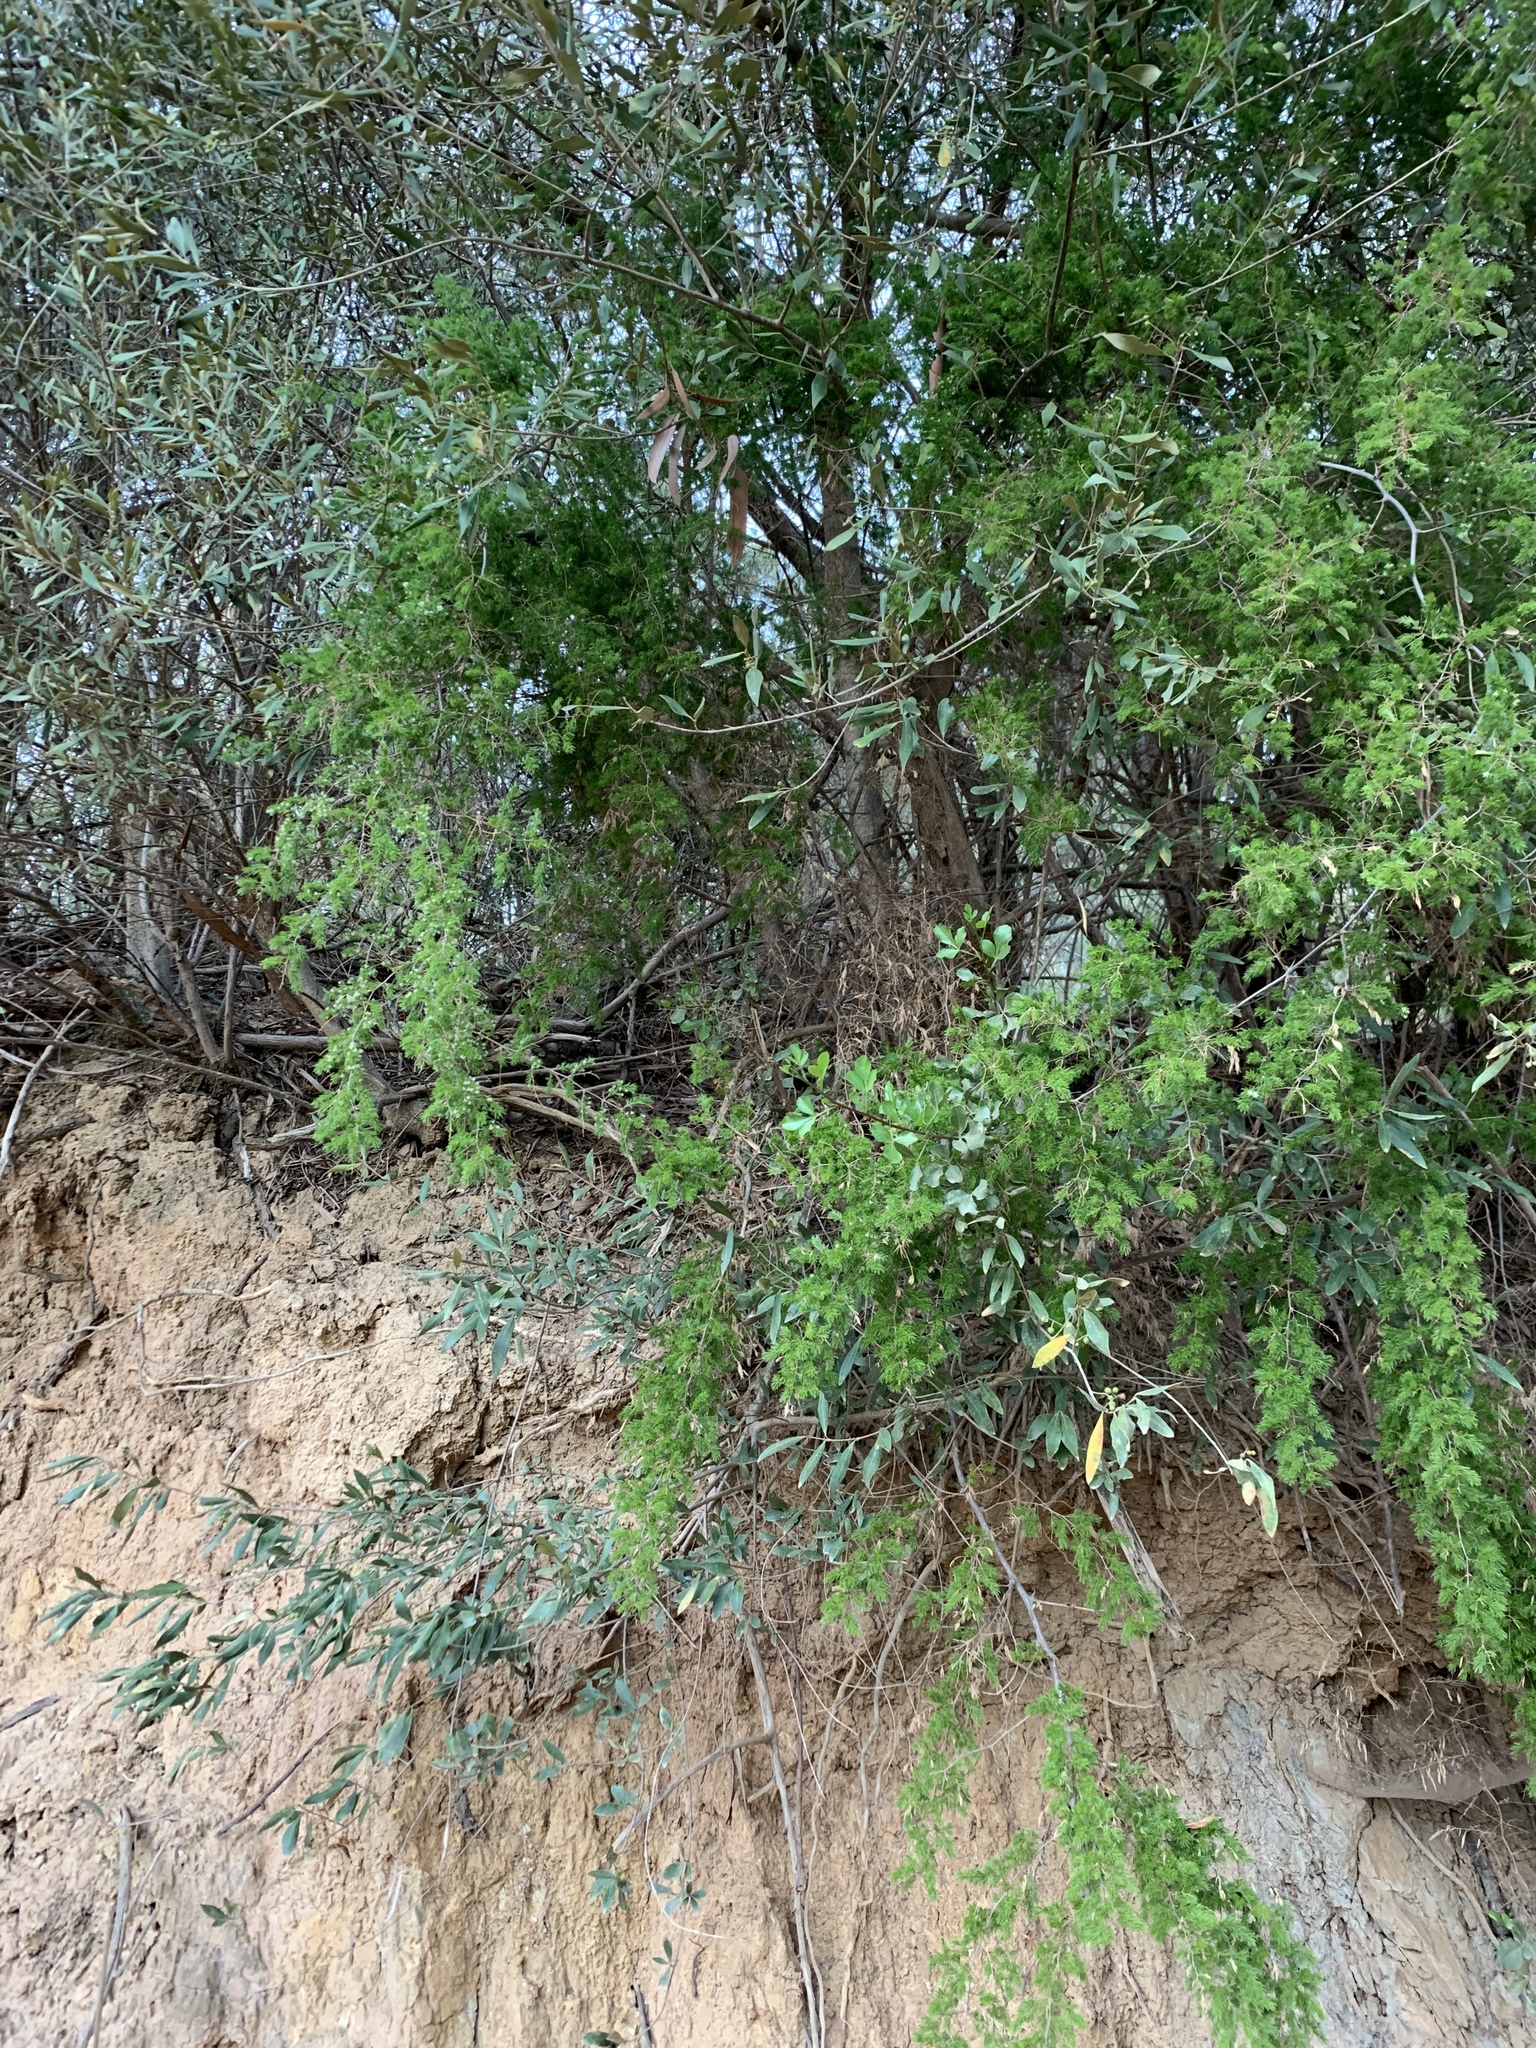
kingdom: Plantae
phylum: Tracheophyta
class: Liliopsida
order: Asparagales
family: Asparagaceae
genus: Asparagus
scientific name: Asparagus rubicundus
